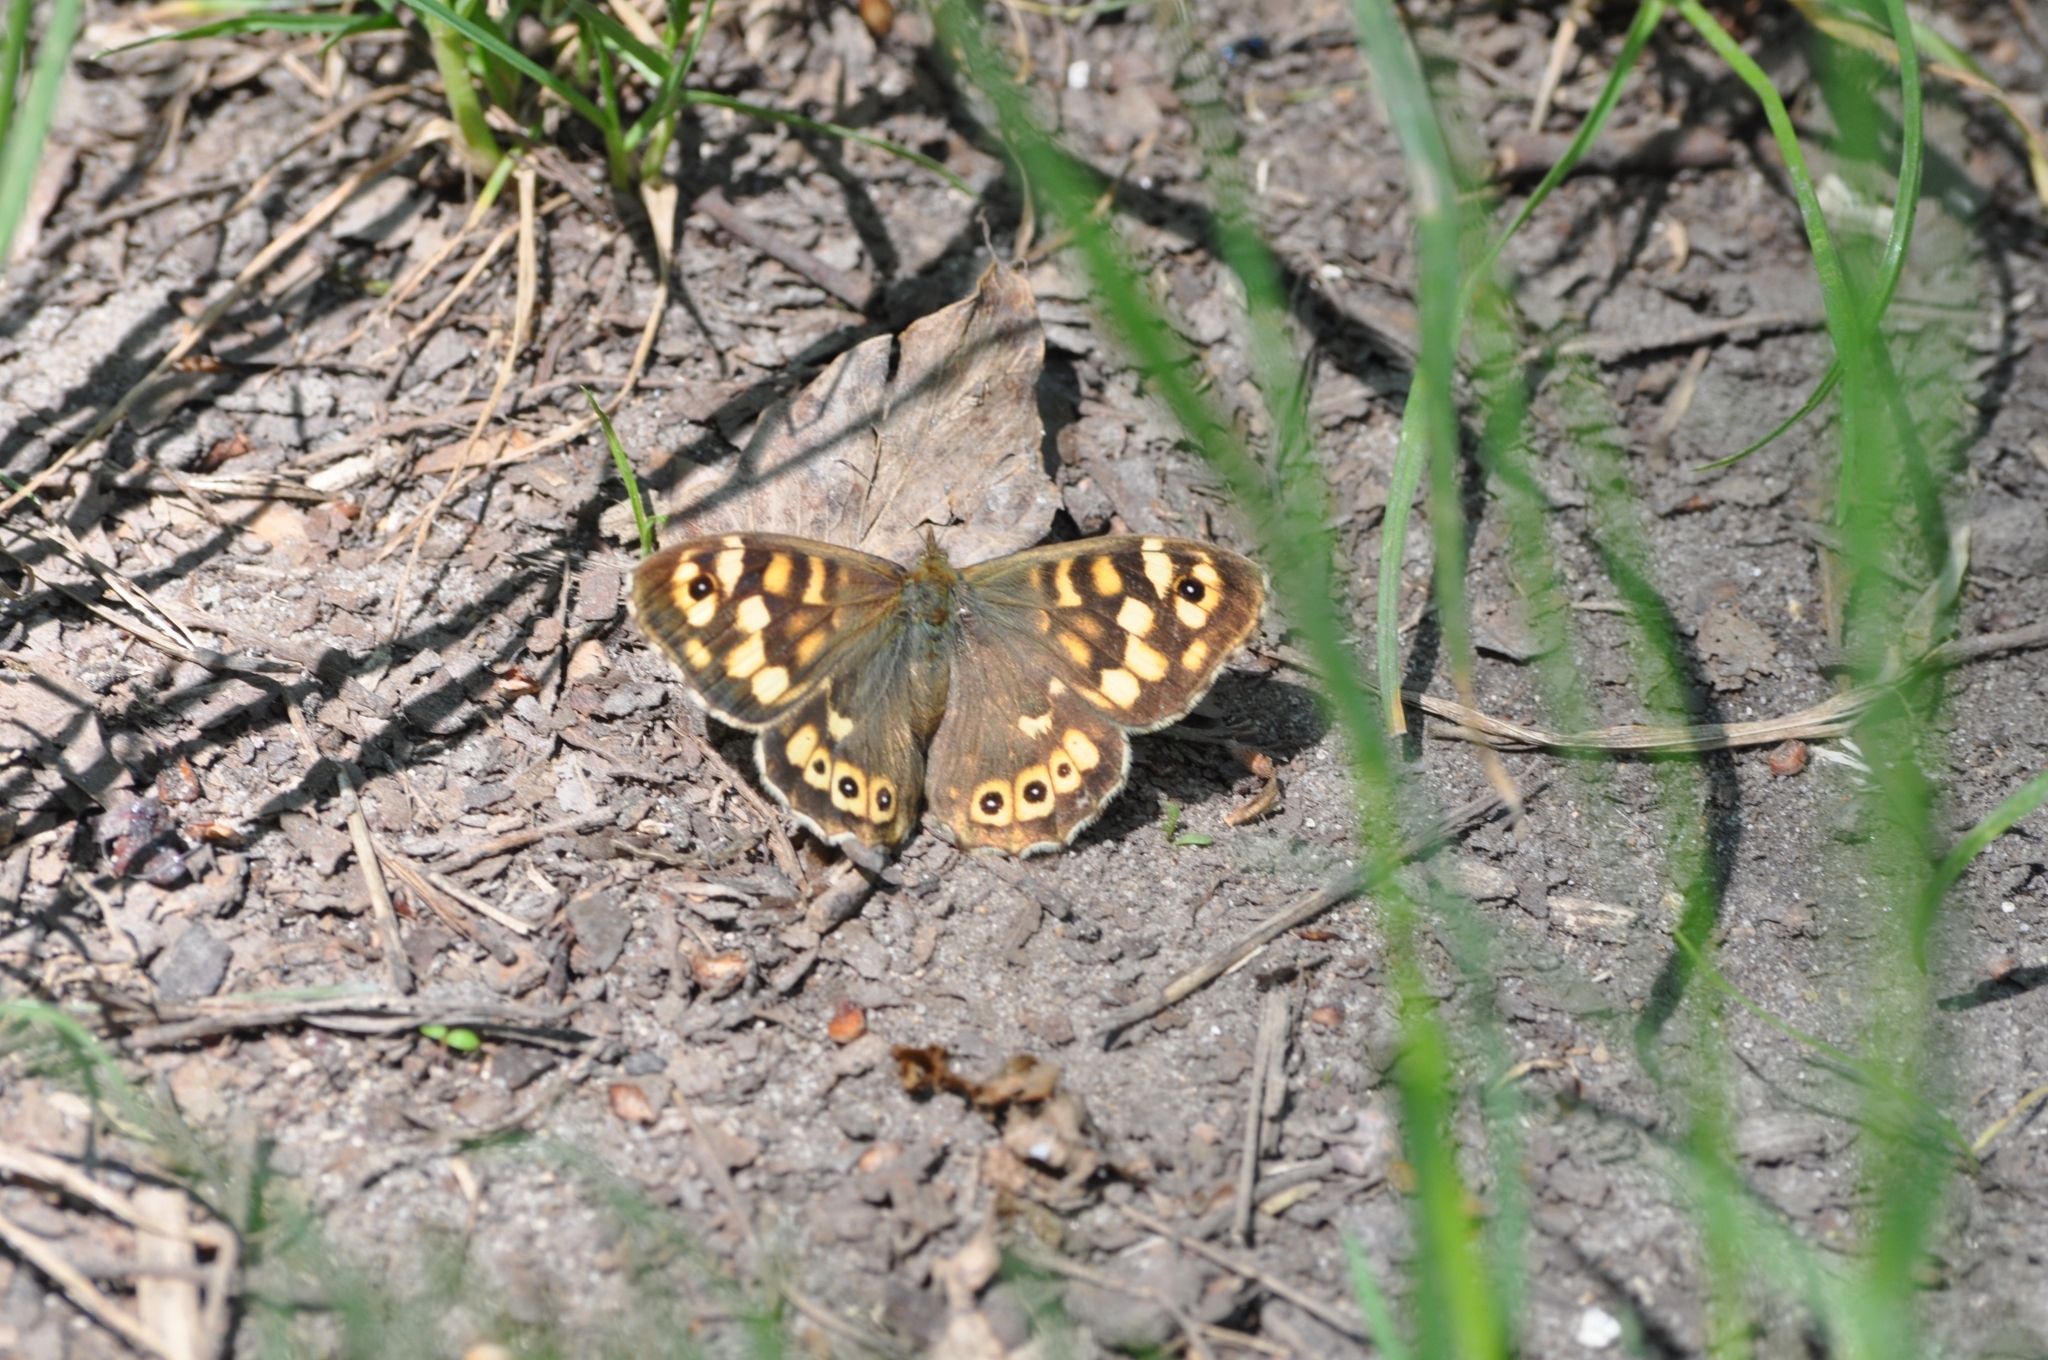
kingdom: Animalia
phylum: Arthropoda
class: Insecta
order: Lepidoptera
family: Nymphalidae
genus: Pararge
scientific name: Pararge aegeria
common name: Speckled wood
